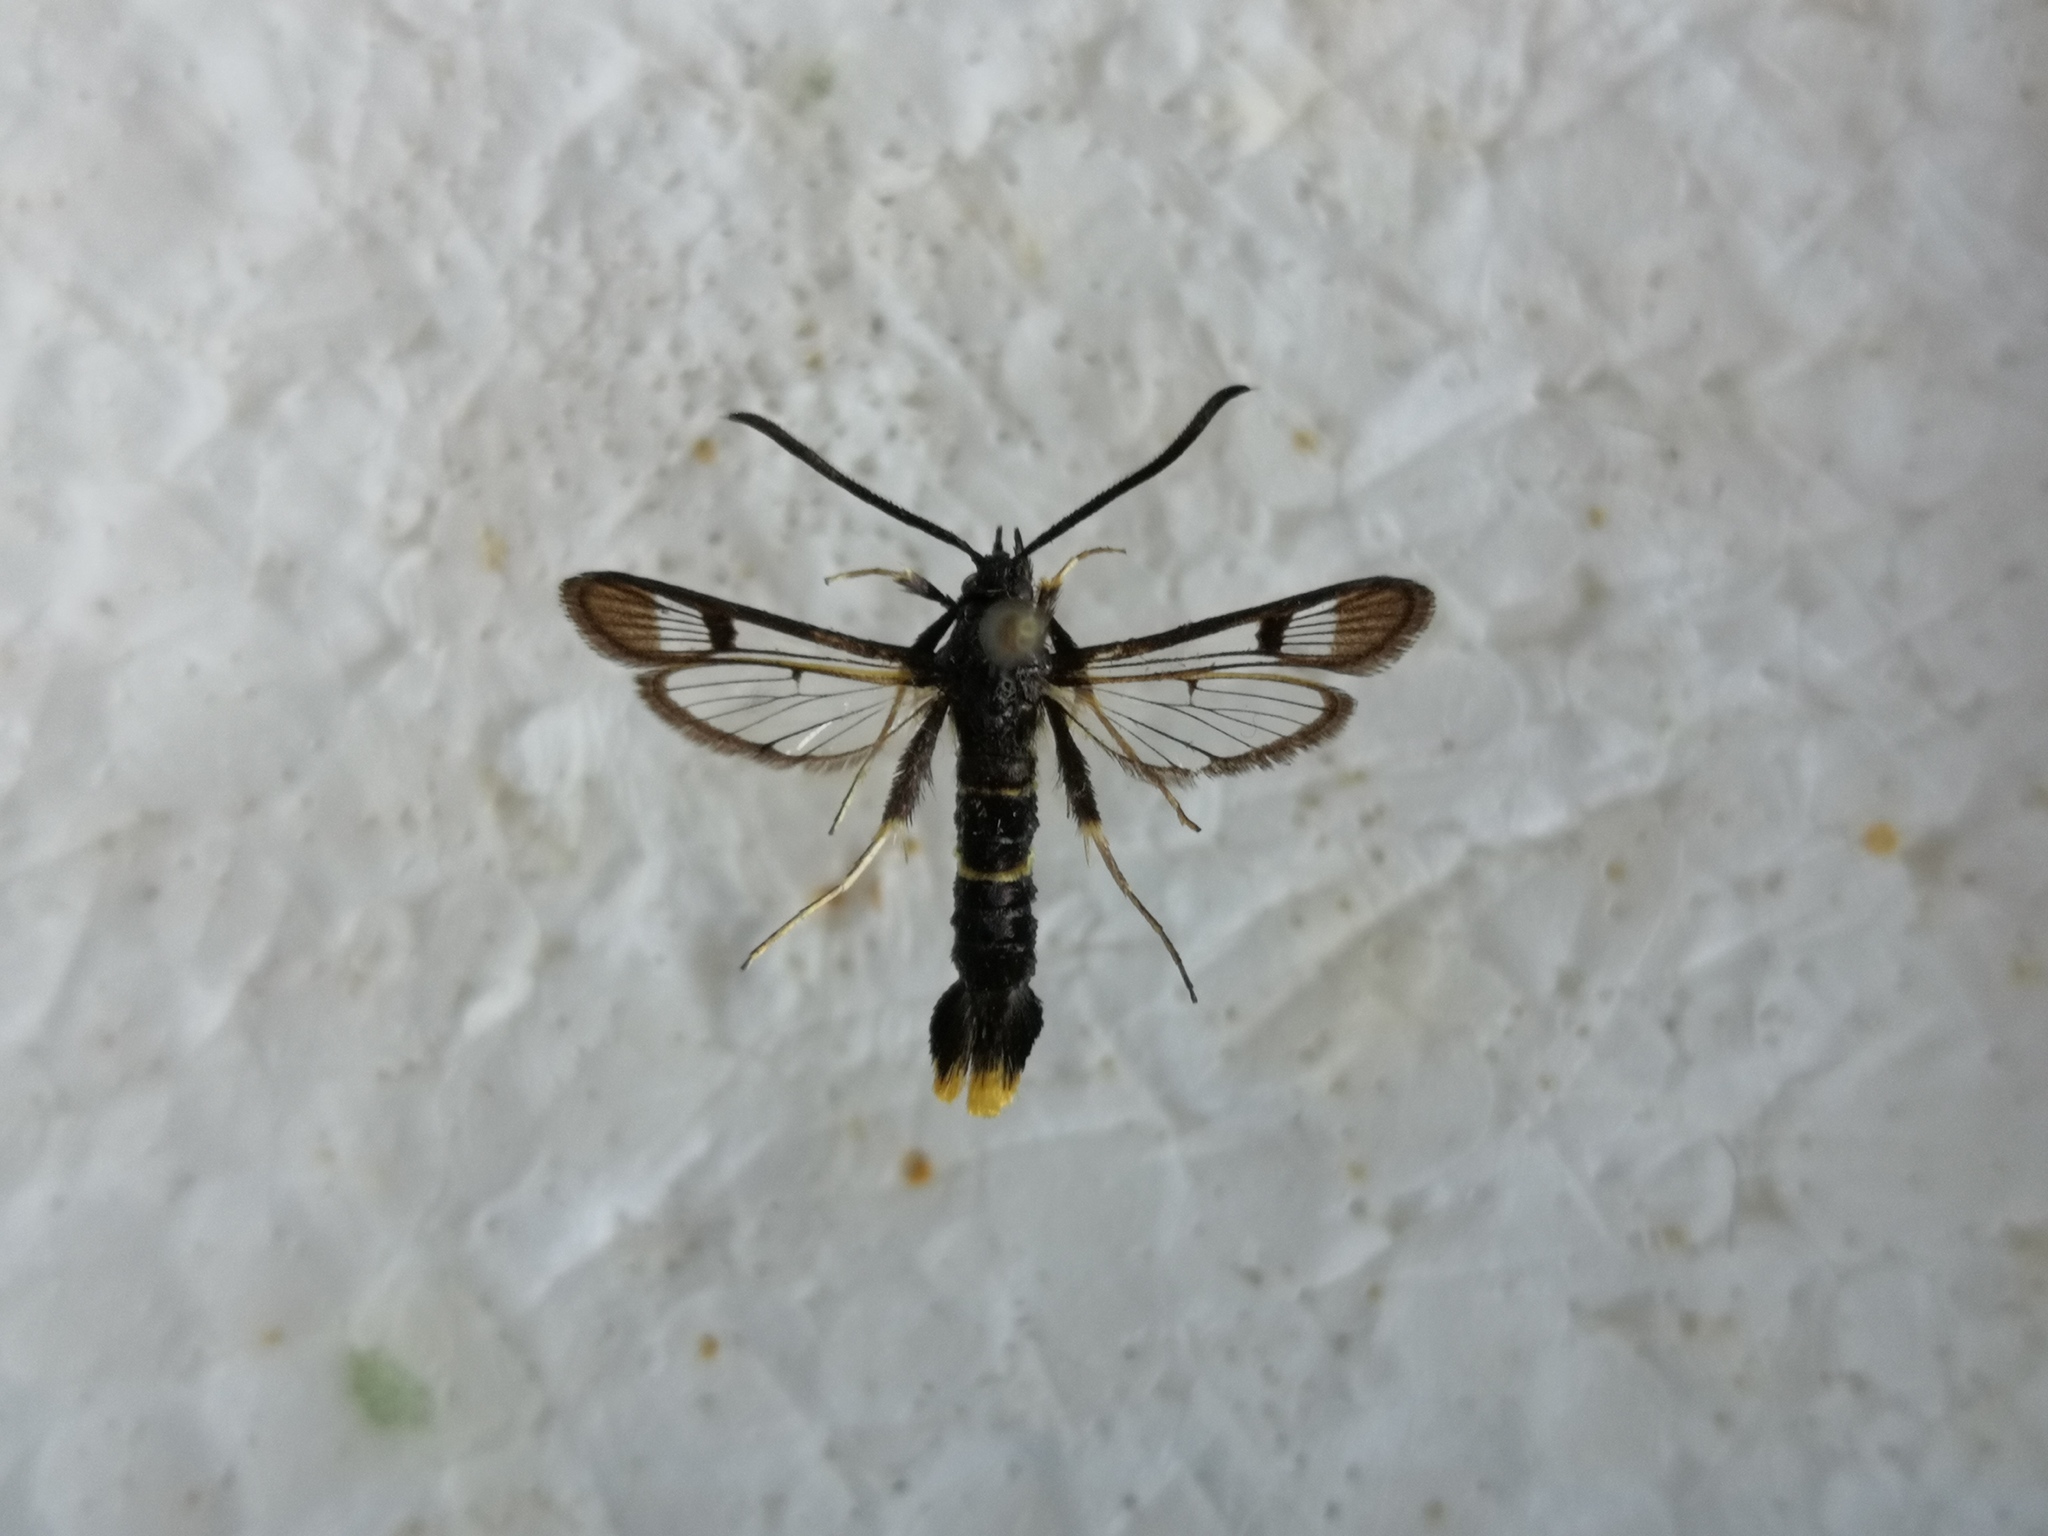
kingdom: Animalia
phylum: Arthropoda
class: Insecta
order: Lepidoptera
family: Sesiidae
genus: Synanthedon
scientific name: Synanthedon andrenaeformis
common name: Orange-tailed clearwing
